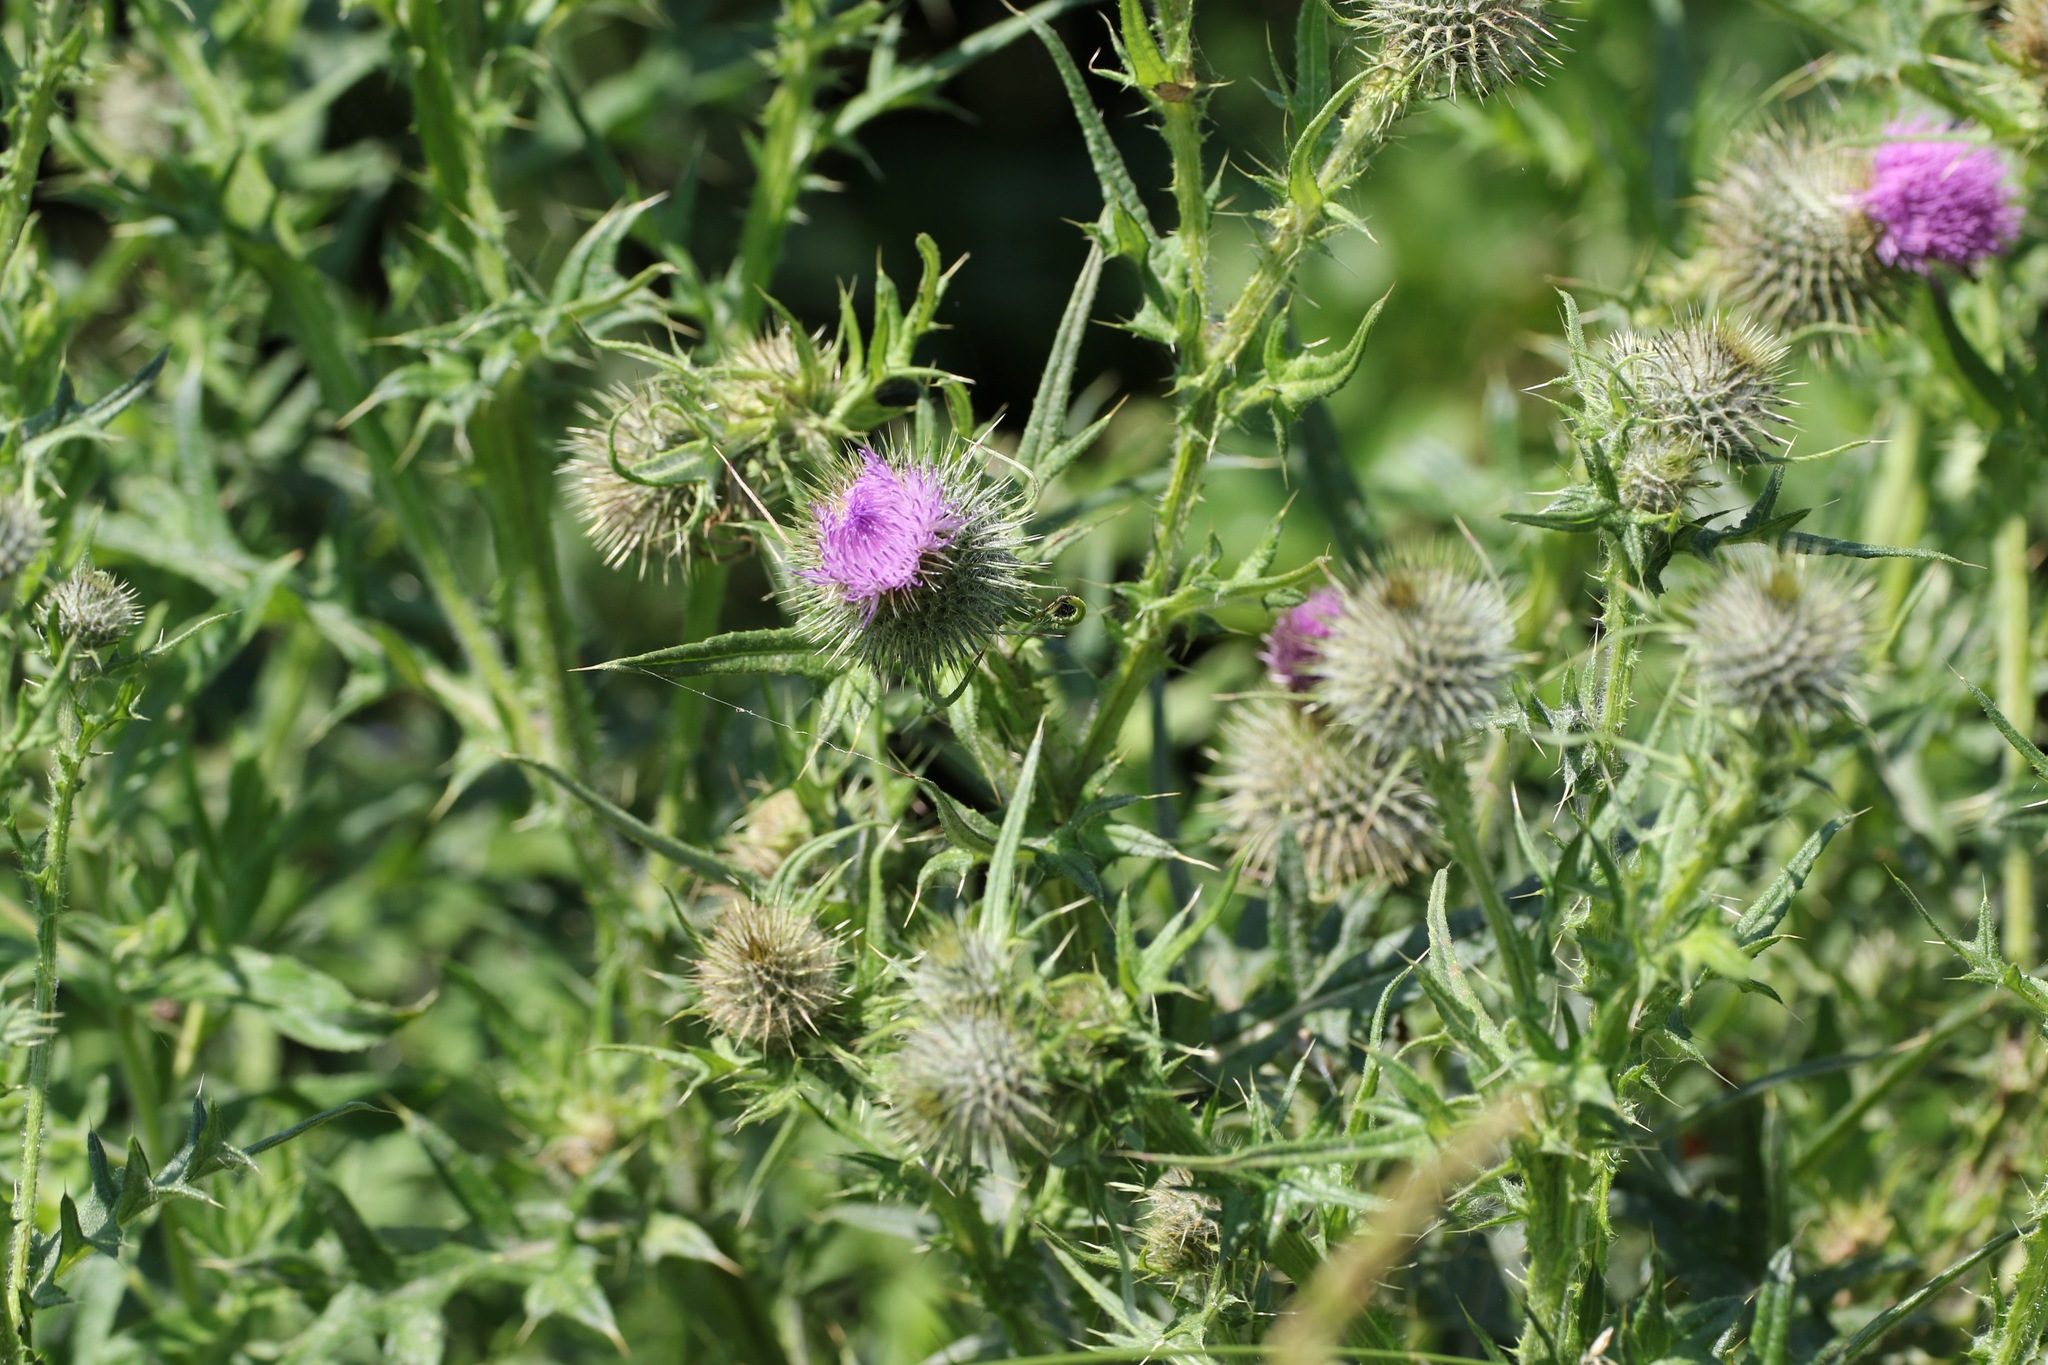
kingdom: Plantae
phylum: Tracheophyta
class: Magnoliopsida
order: Asterales
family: Asteraceae
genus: Cirsium
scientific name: Cirsium vulgare
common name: Bull thistle
